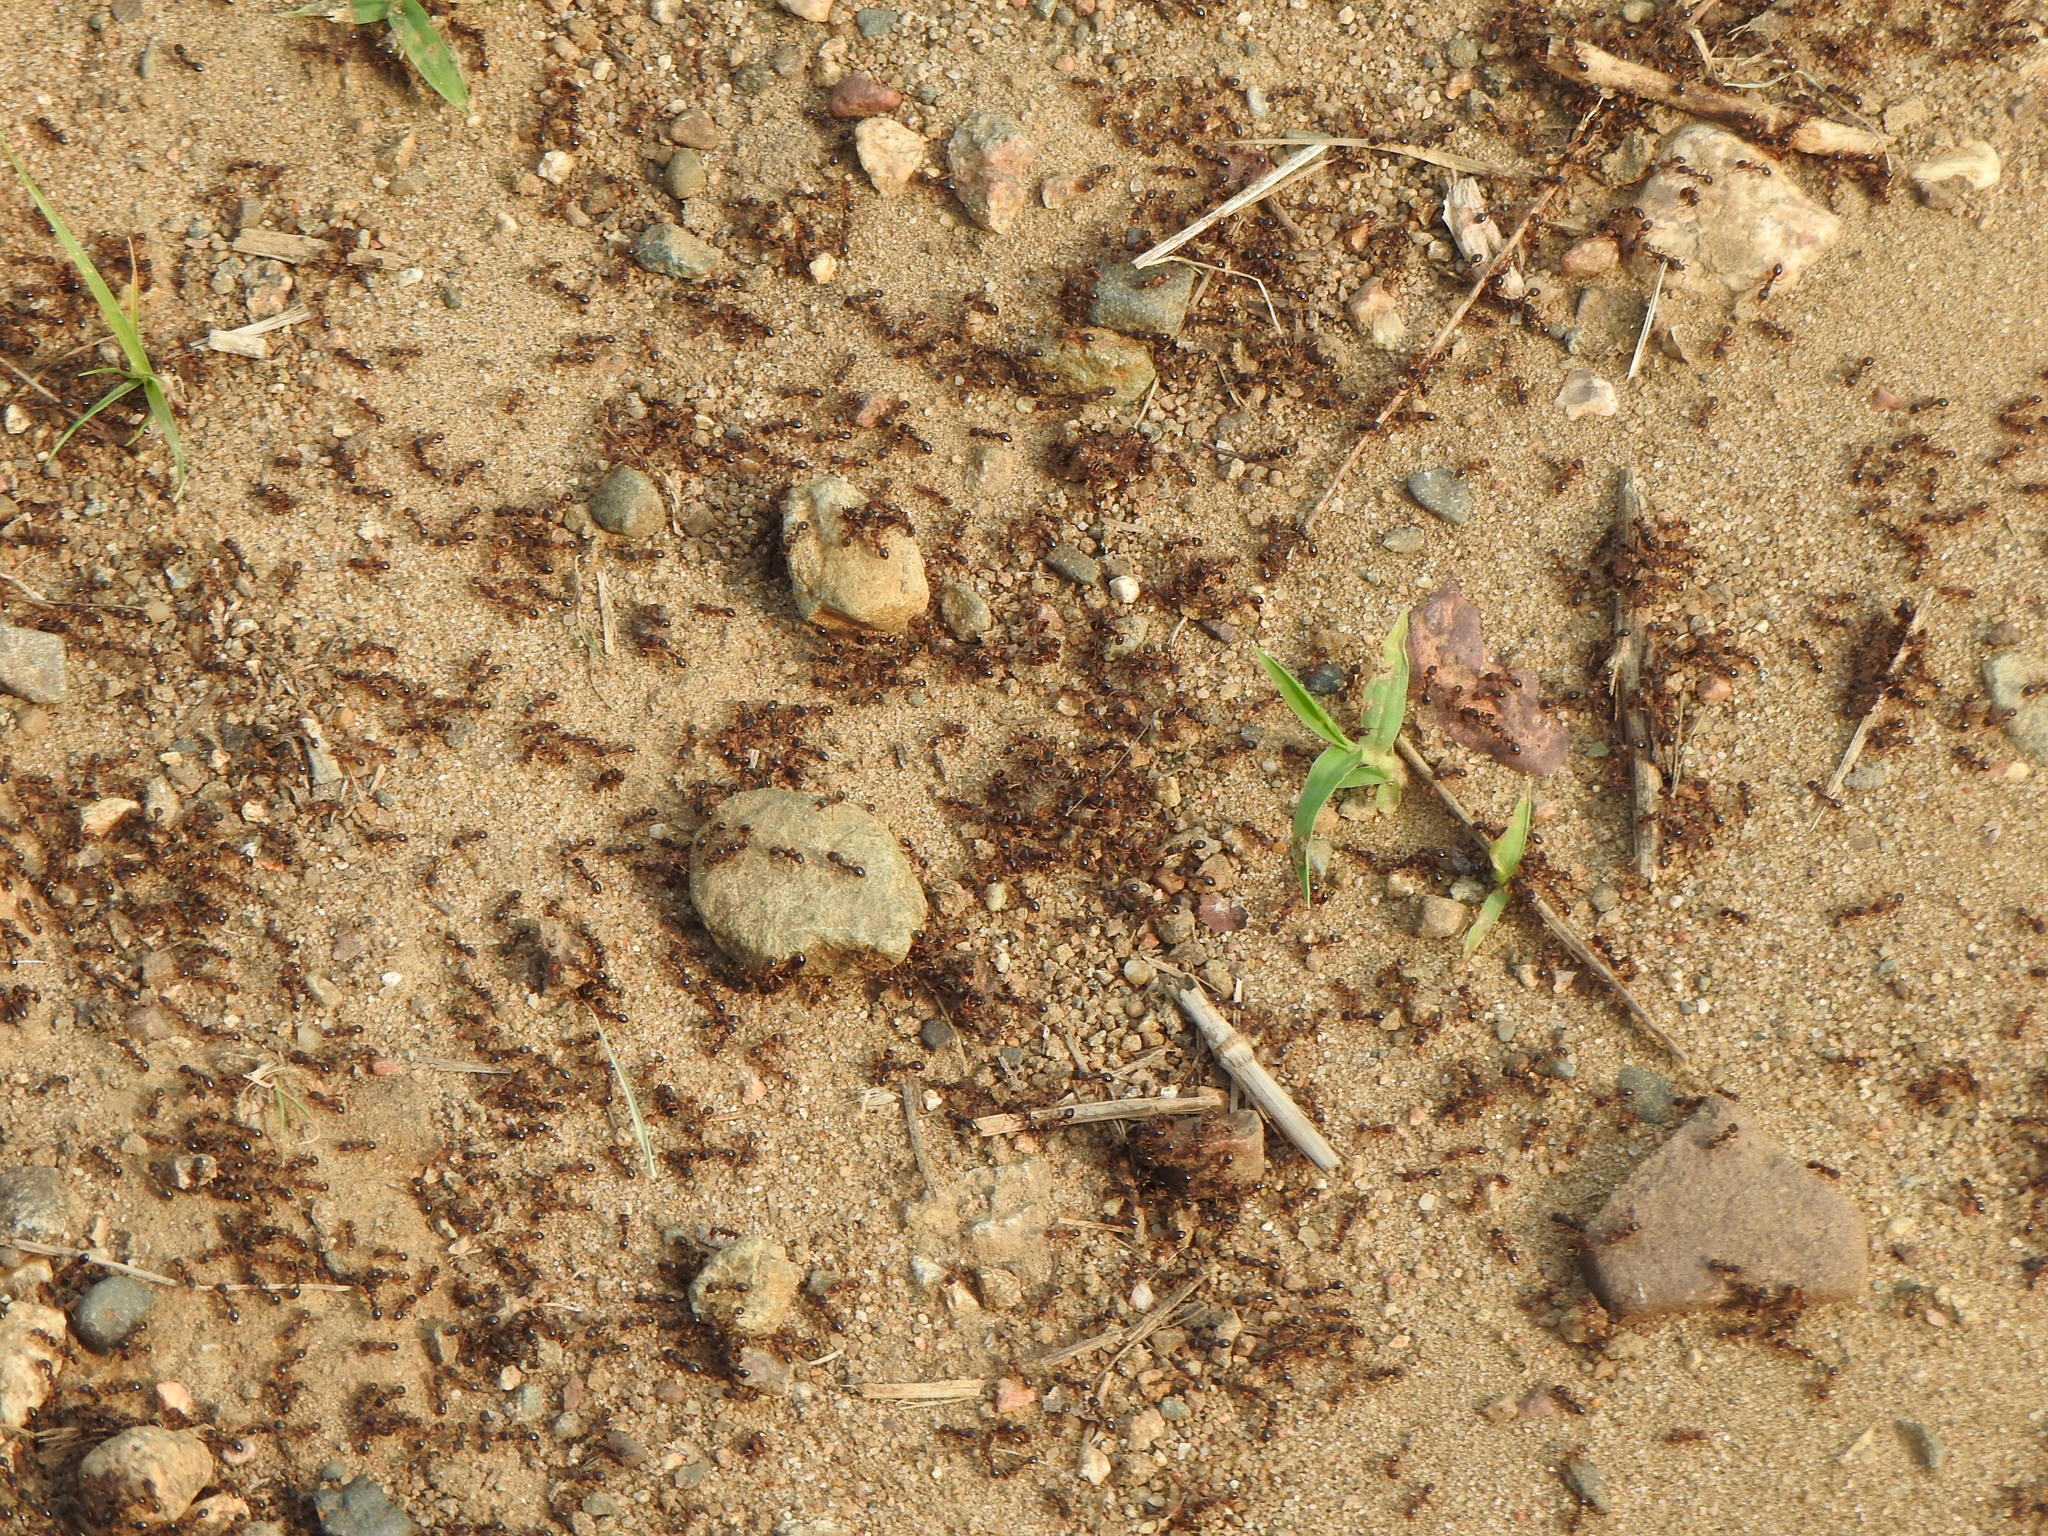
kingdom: Animalia
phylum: Arthropoda
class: Insecta
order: Hymenoptera
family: Formicidae
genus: Tetramorium
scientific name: Tetramorium immigrans
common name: Pavement ant
